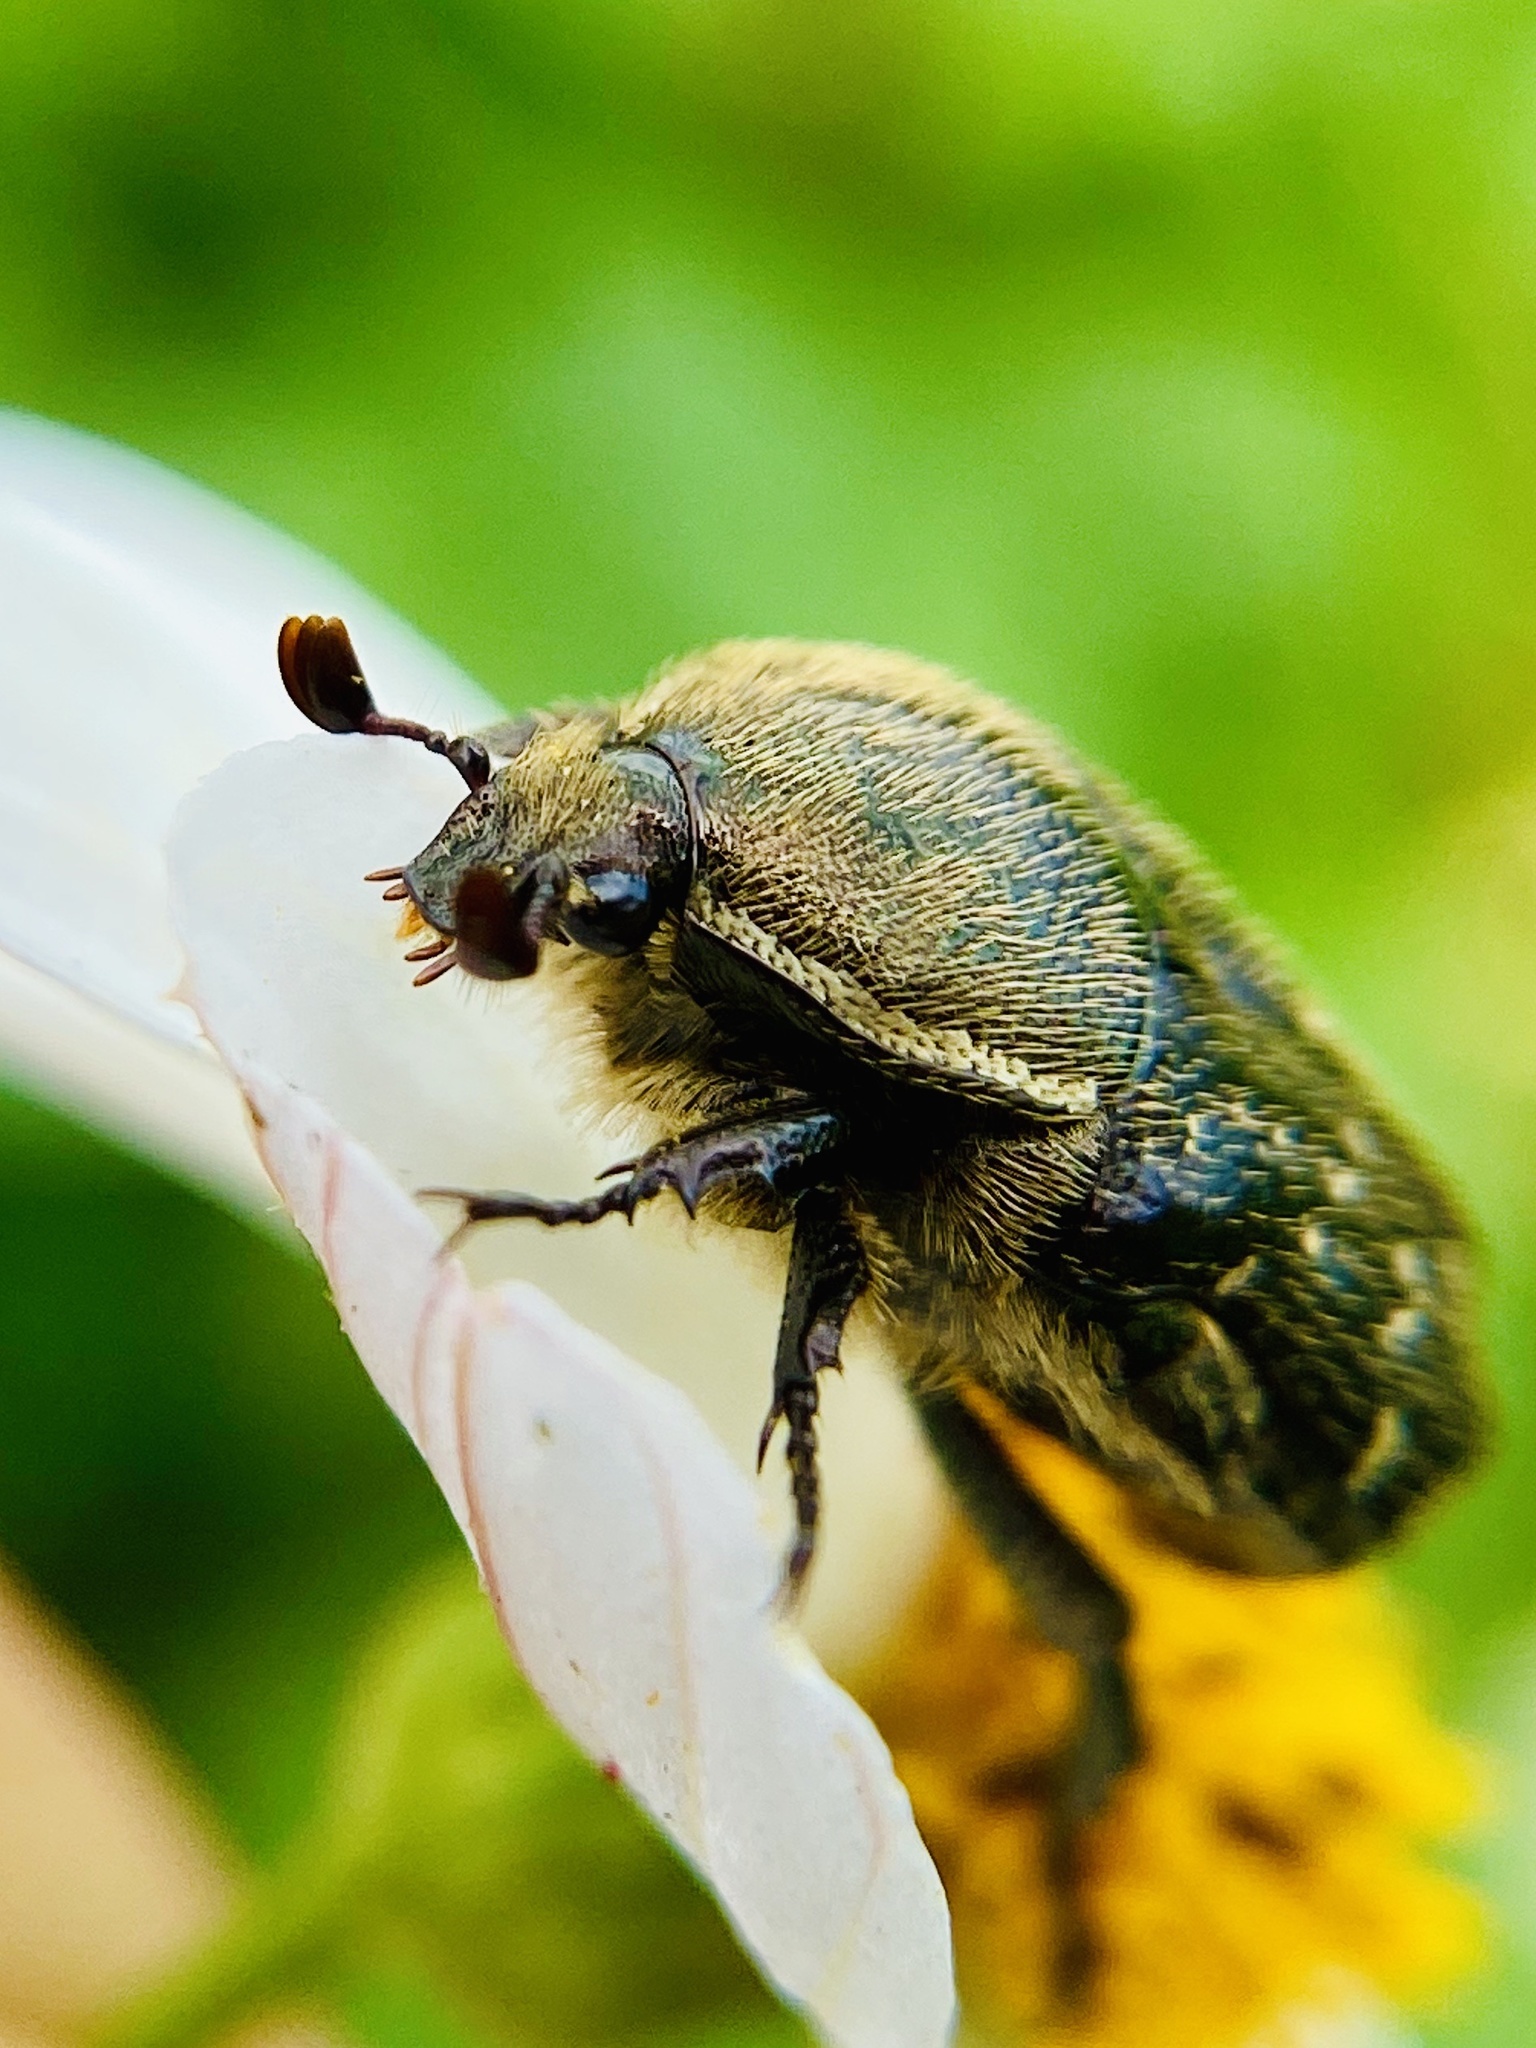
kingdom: Animalia
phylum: Arthropoda
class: Insecta
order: Coleoptera
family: Scarabaeidae
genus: Euphoria
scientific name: Euphoria sepulcralis
